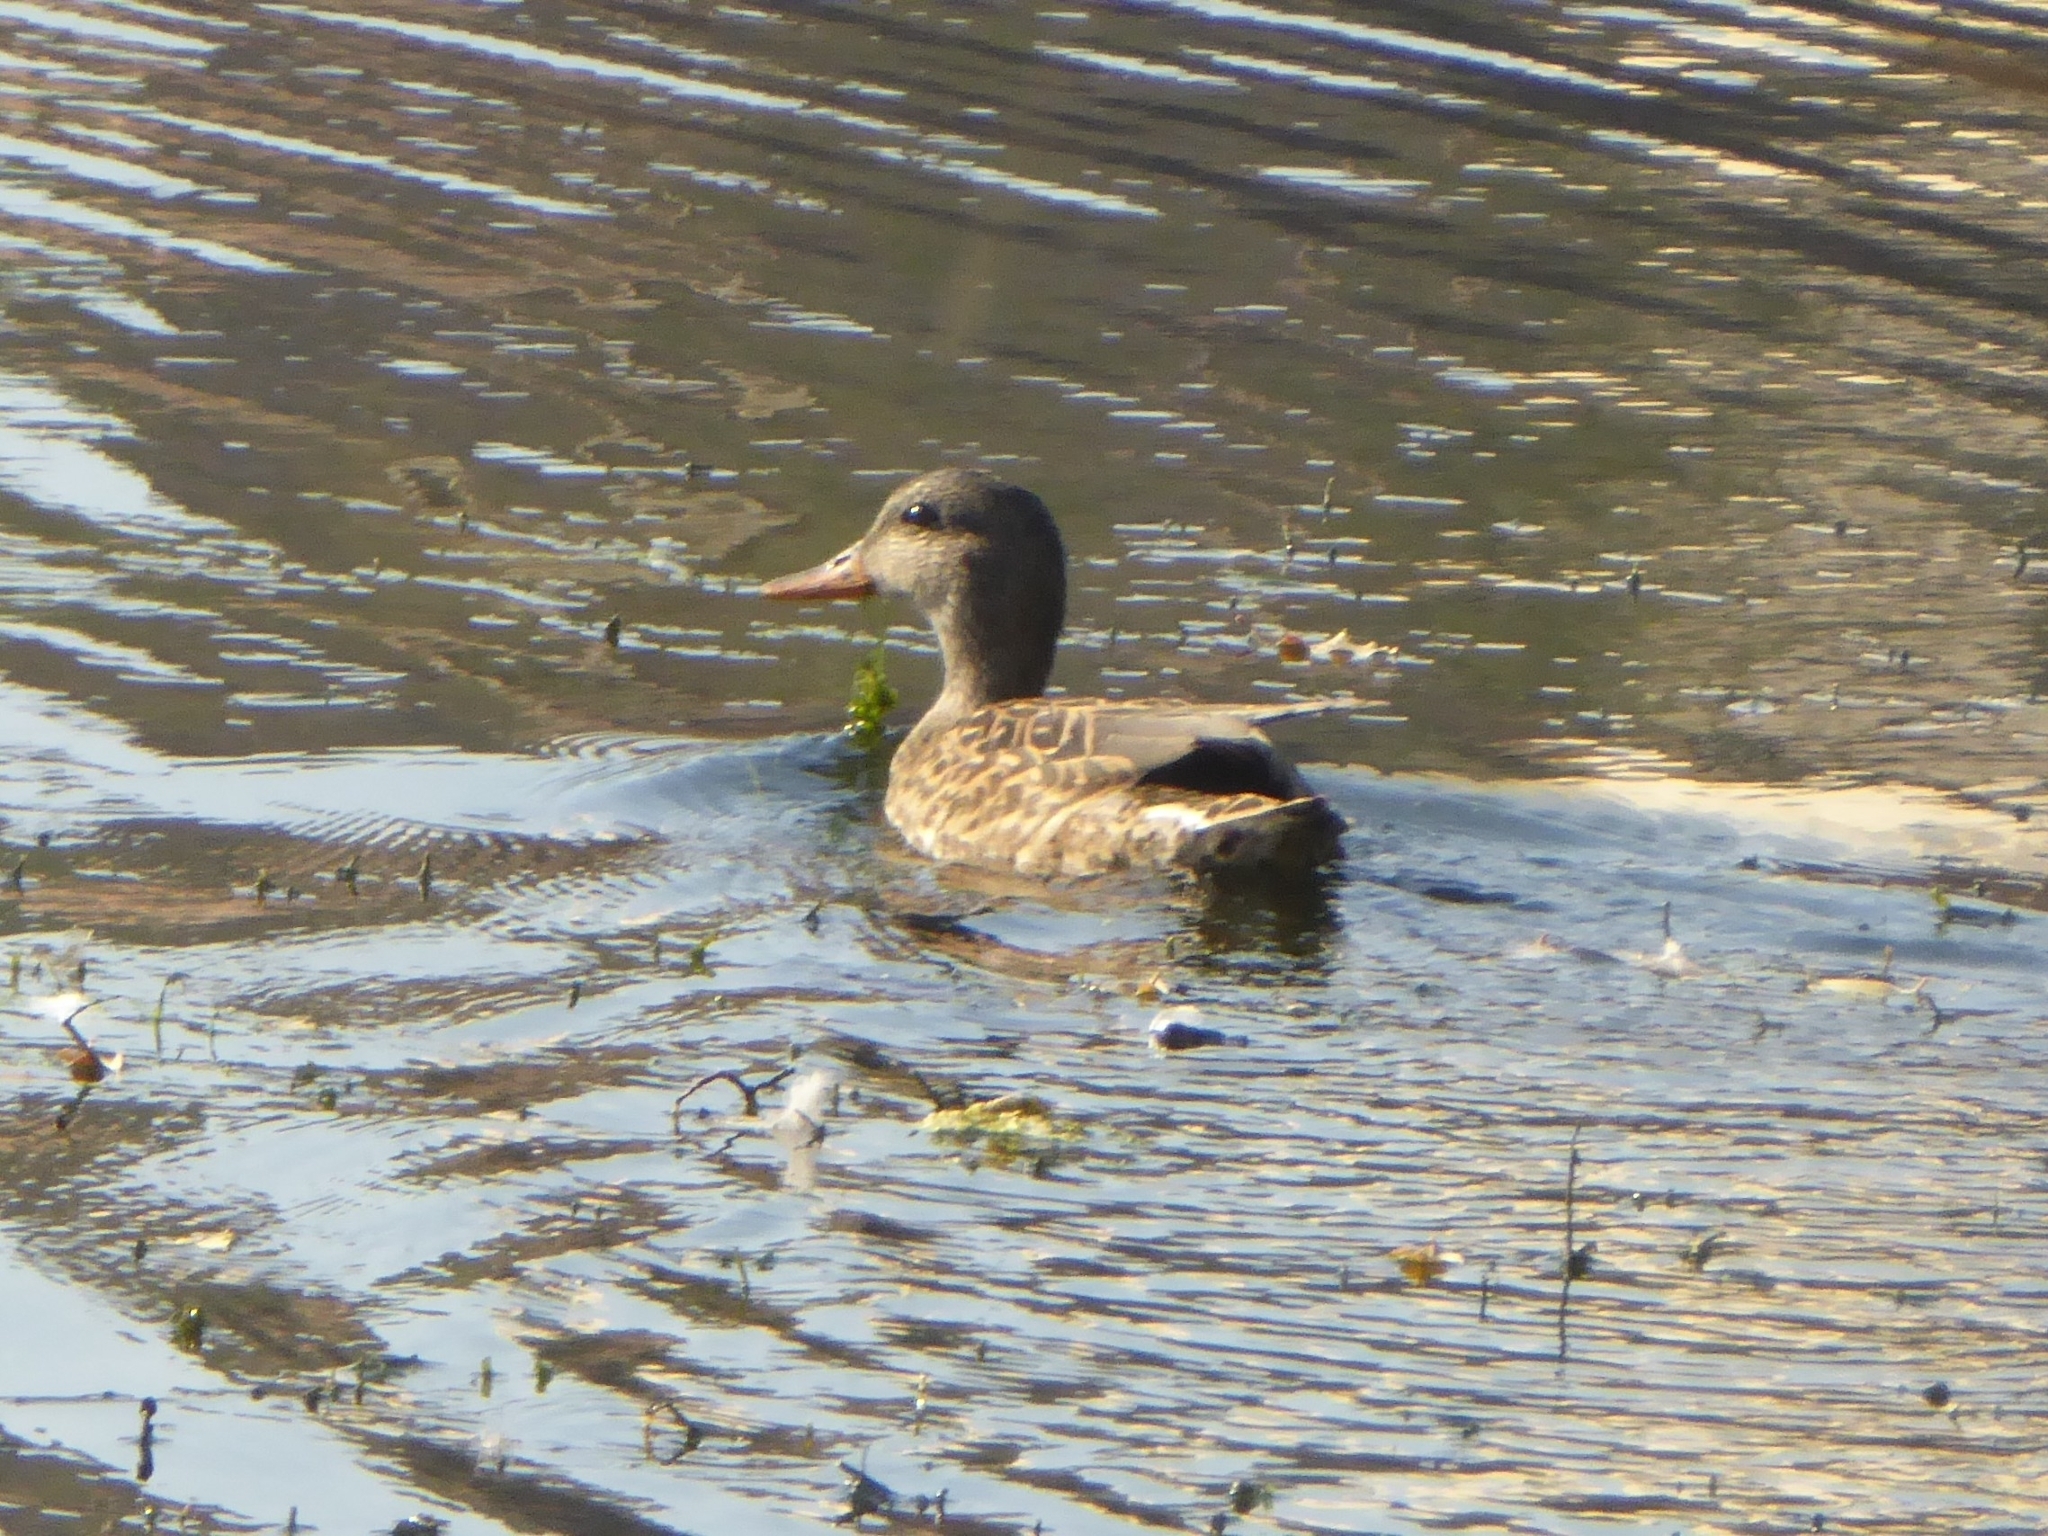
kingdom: Animalia
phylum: Chordata
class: Aves
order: Anseriformes
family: Anatidae
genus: Mareca
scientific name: Mareca strepera
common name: Gadwall
